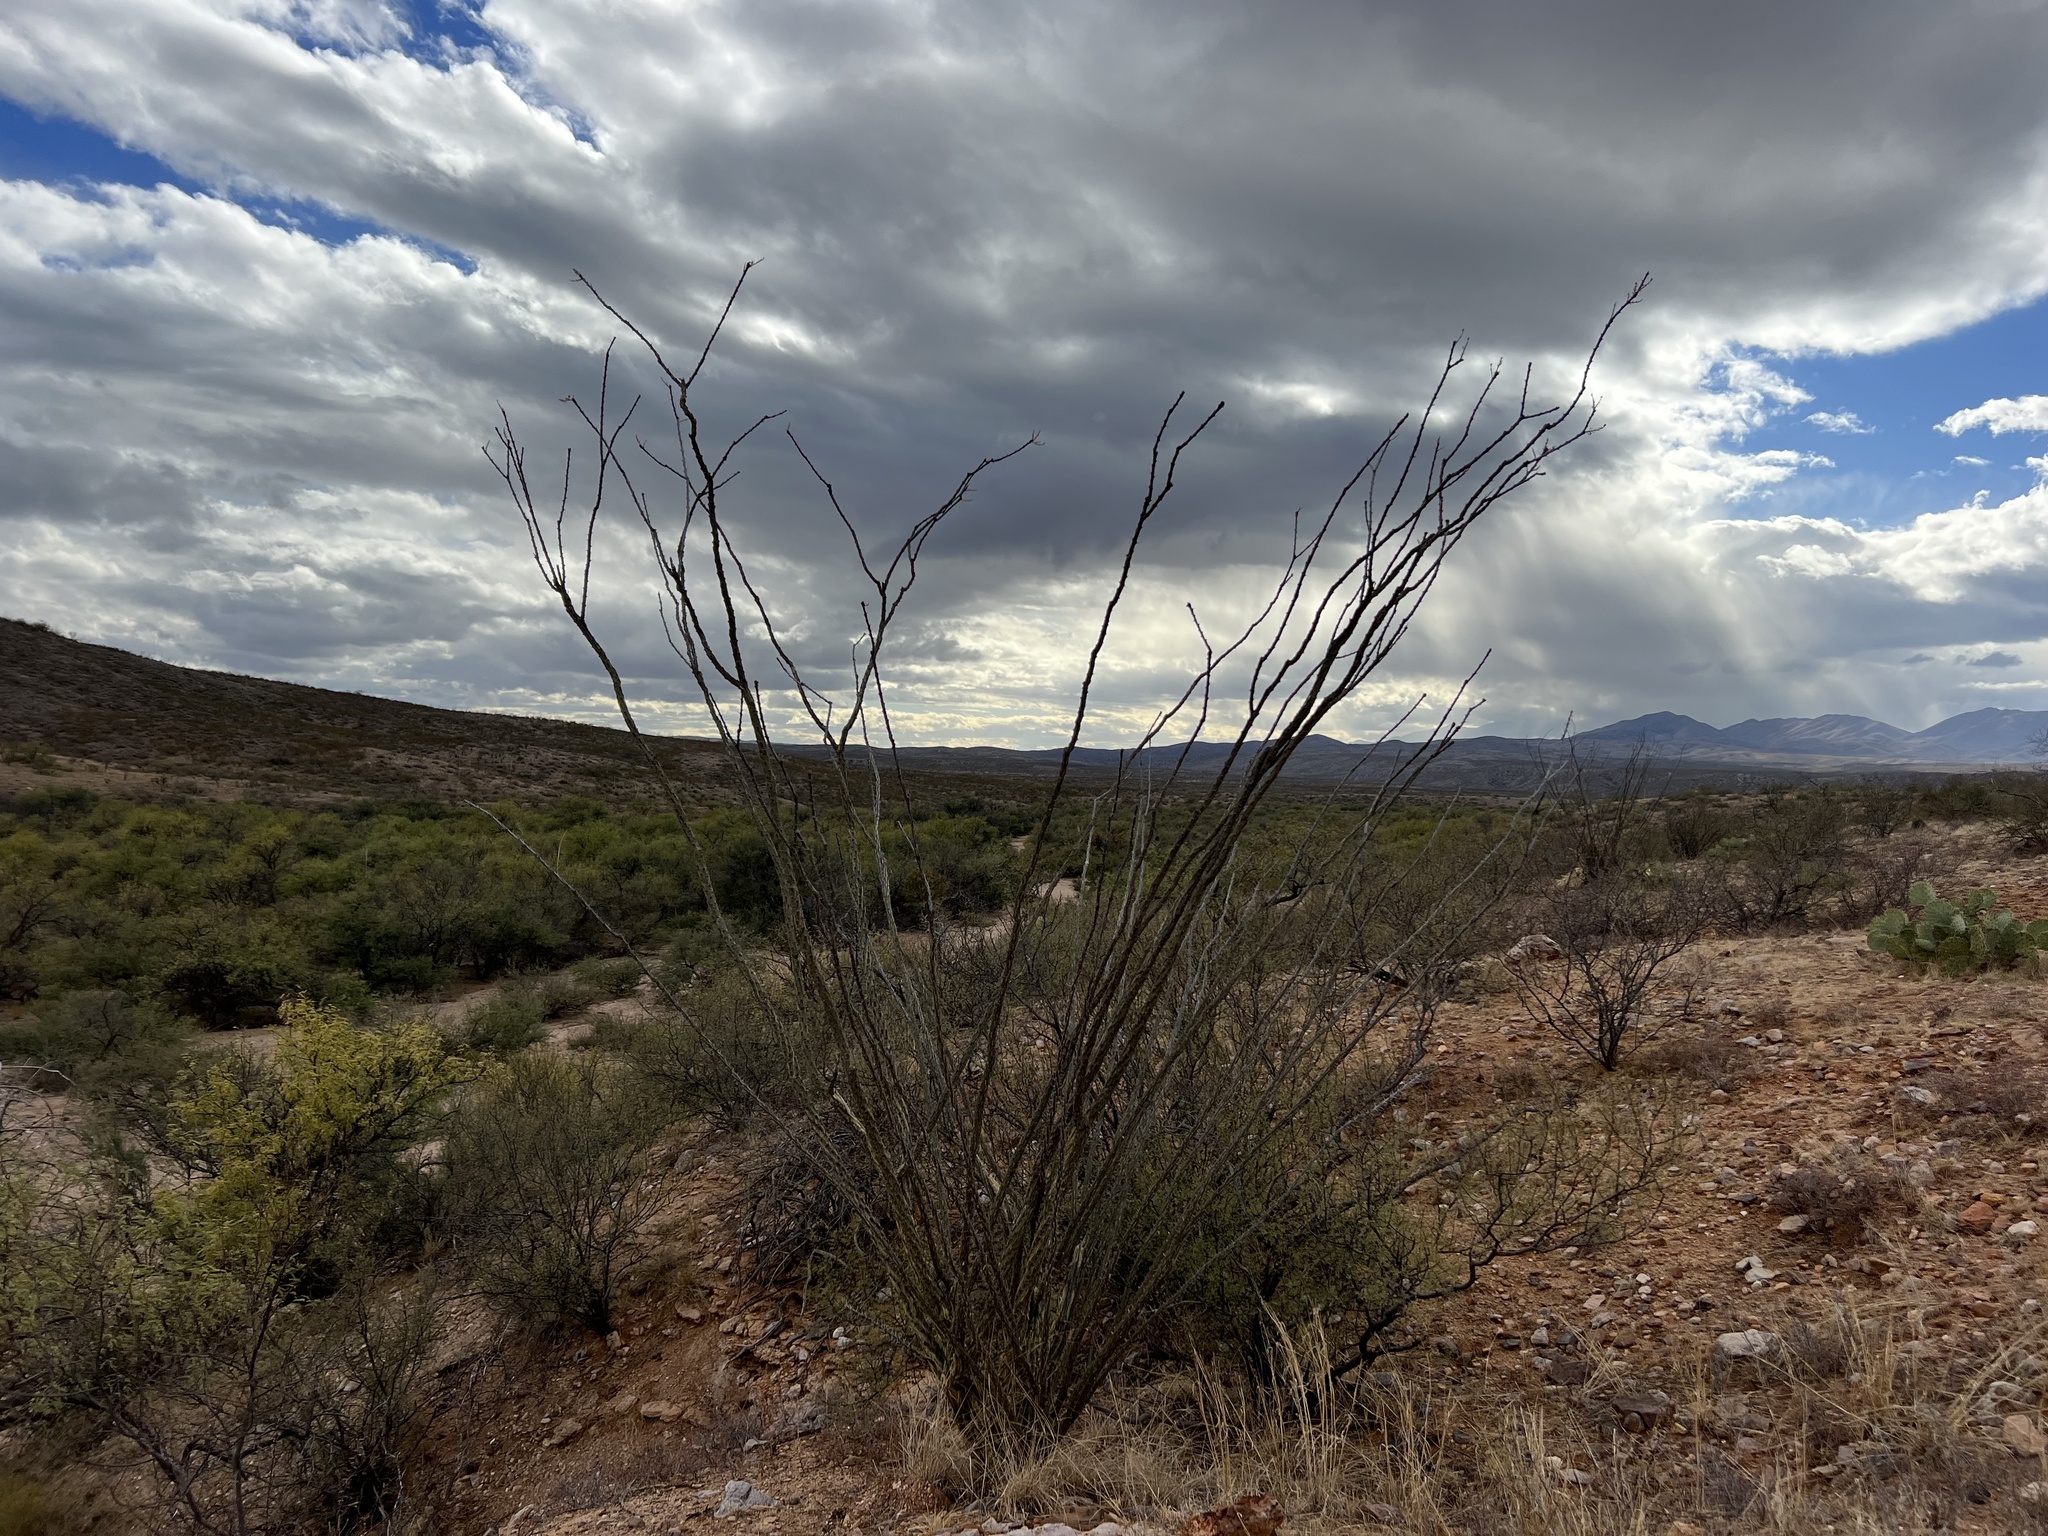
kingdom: Plantae
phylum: Tracheophyta
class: Magnoliopsida
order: Ericales
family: Fouquieriaceae
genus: Fouquieria
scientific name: Fouquieria splendens
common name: Vine-cactus
